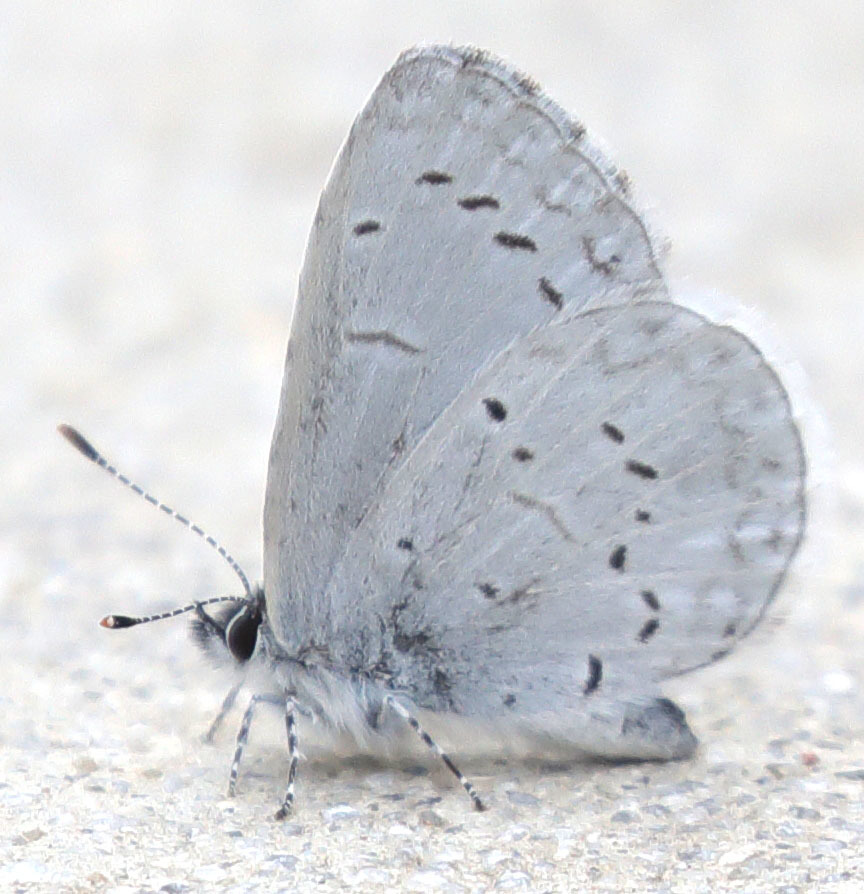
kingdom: Animalia
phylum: Arthropoda
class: Insecta
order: Lepidoptera
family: Lycaenidae
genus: Celastrina
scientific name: Celastrina ladon
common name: Spring azure
